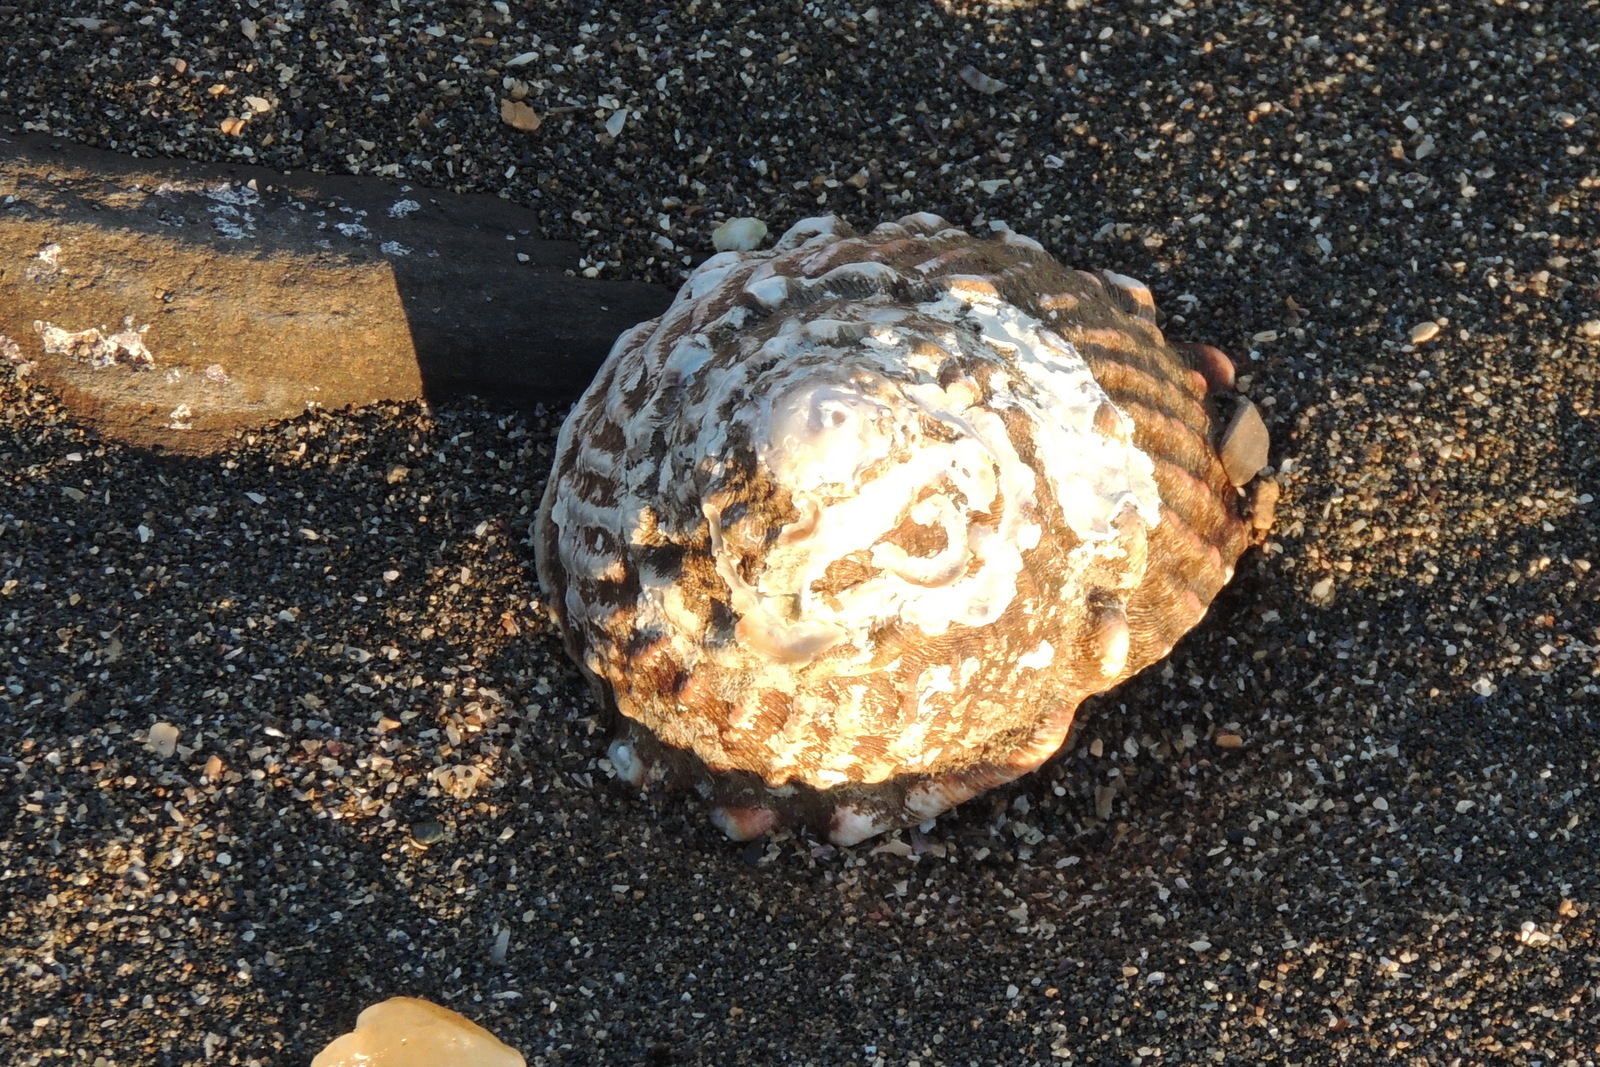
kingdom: Animalia
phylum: Mollusca
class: Gastropoda
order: Trochida
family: Turbinidae
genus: Megastraea
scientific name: Megastraea undosa
